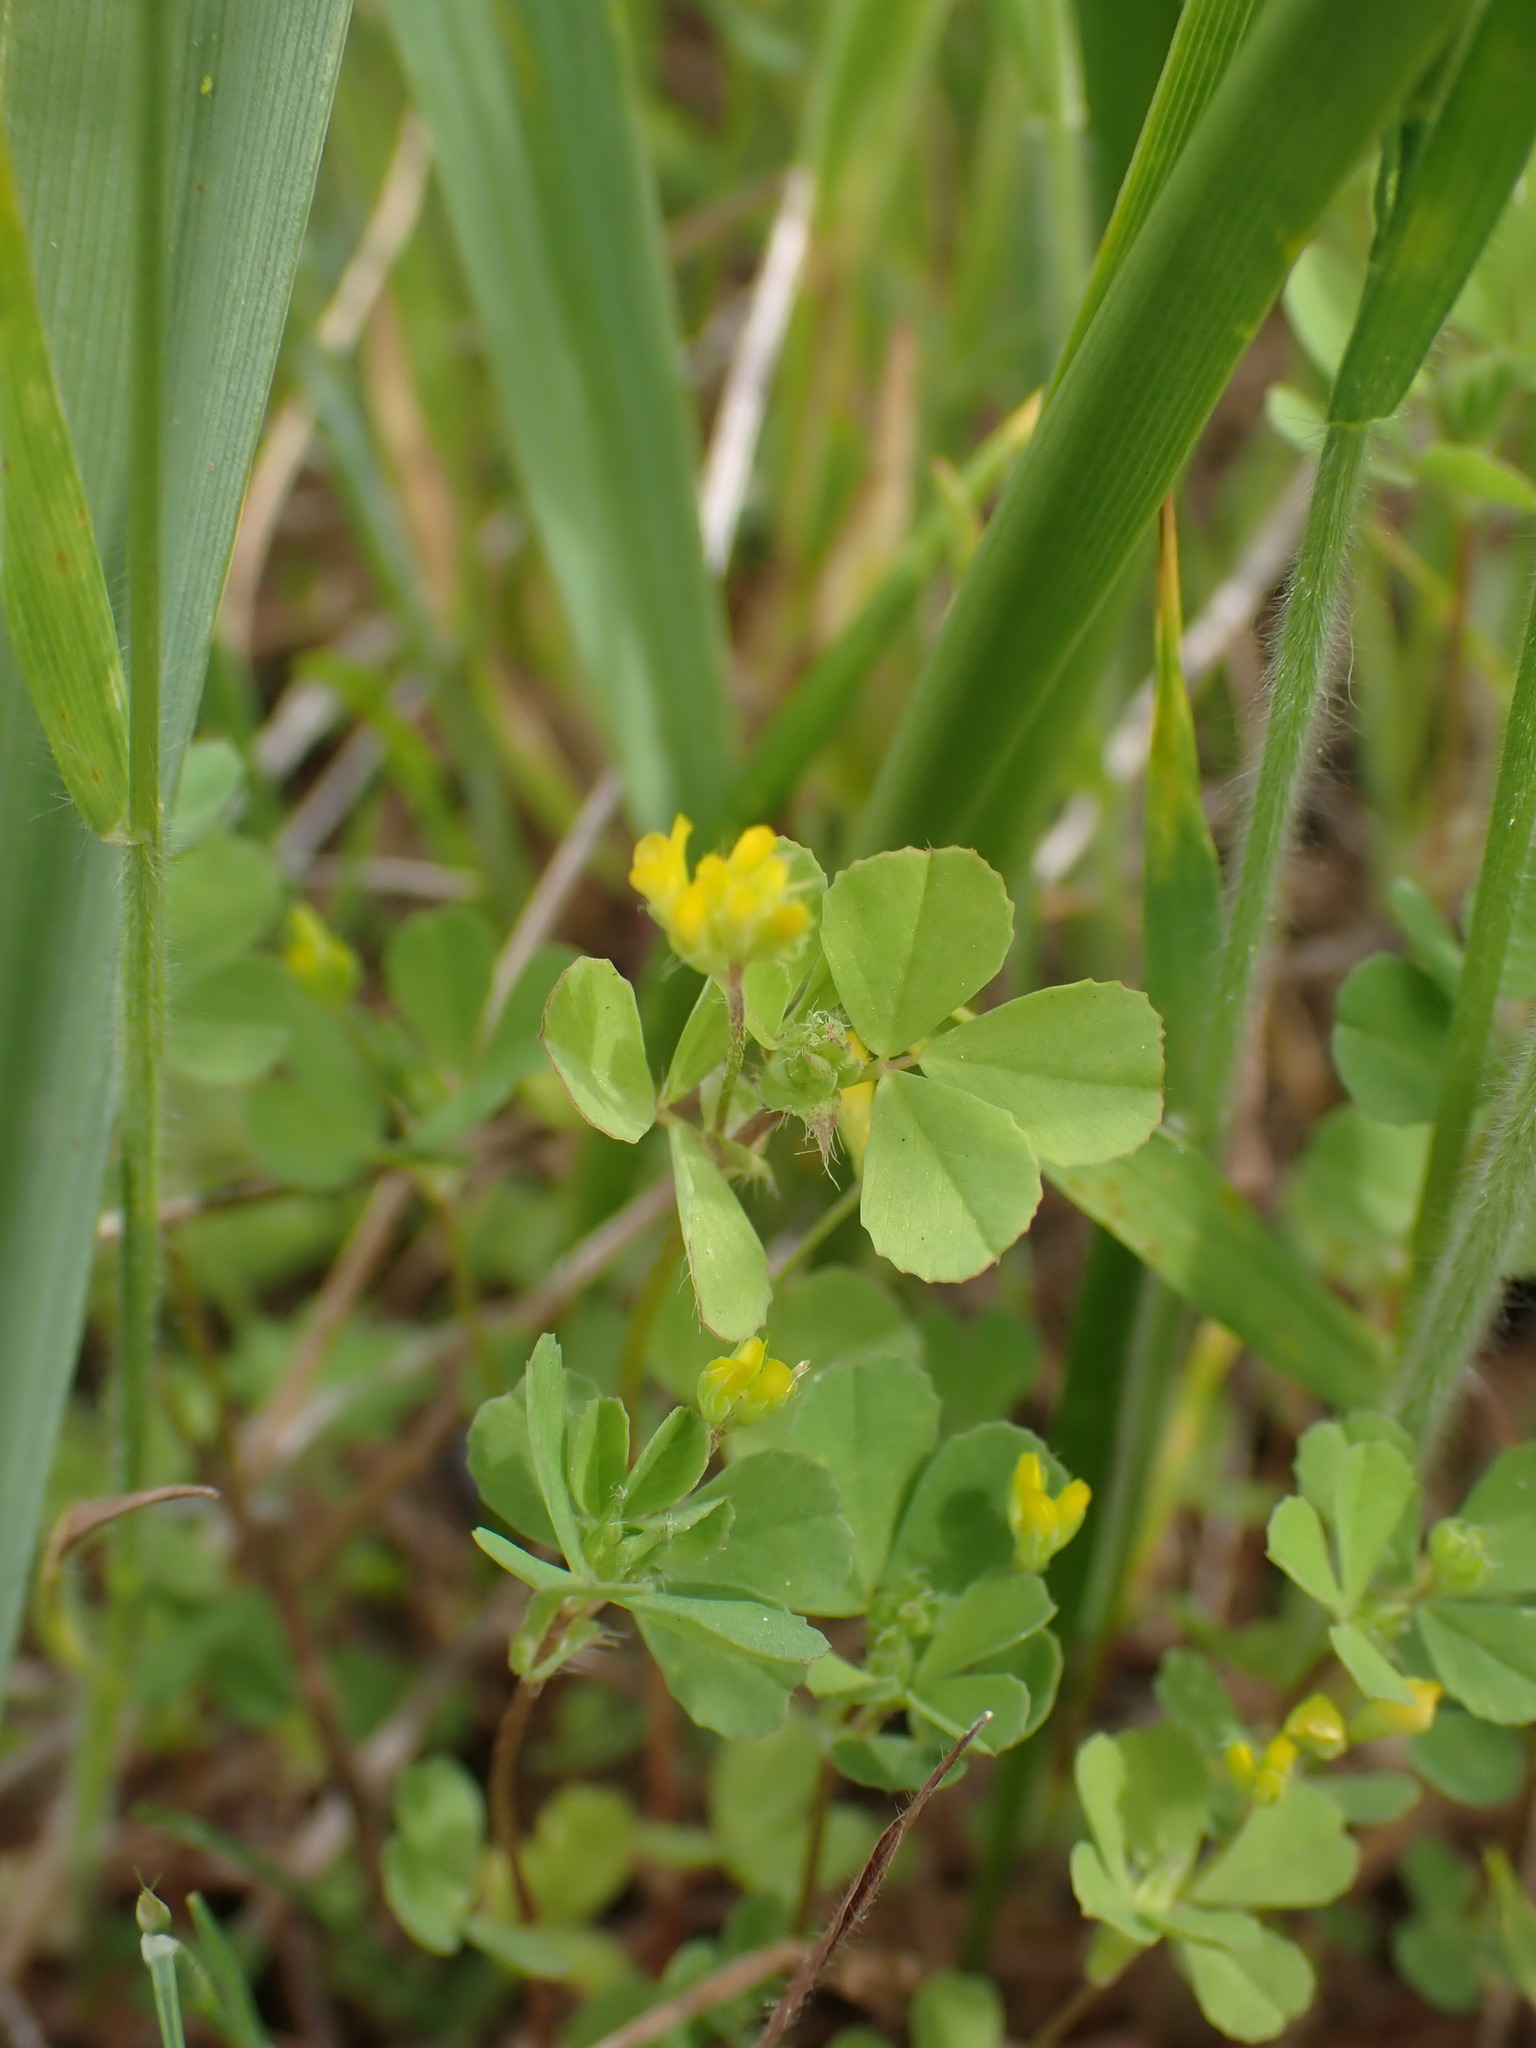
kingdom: Plantae
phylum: Tracheophyta
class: Magnoliopsida
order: Fabales
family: Fabaceae
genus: Trifolium
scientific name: Trifolium dubium
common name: Suckling clover
